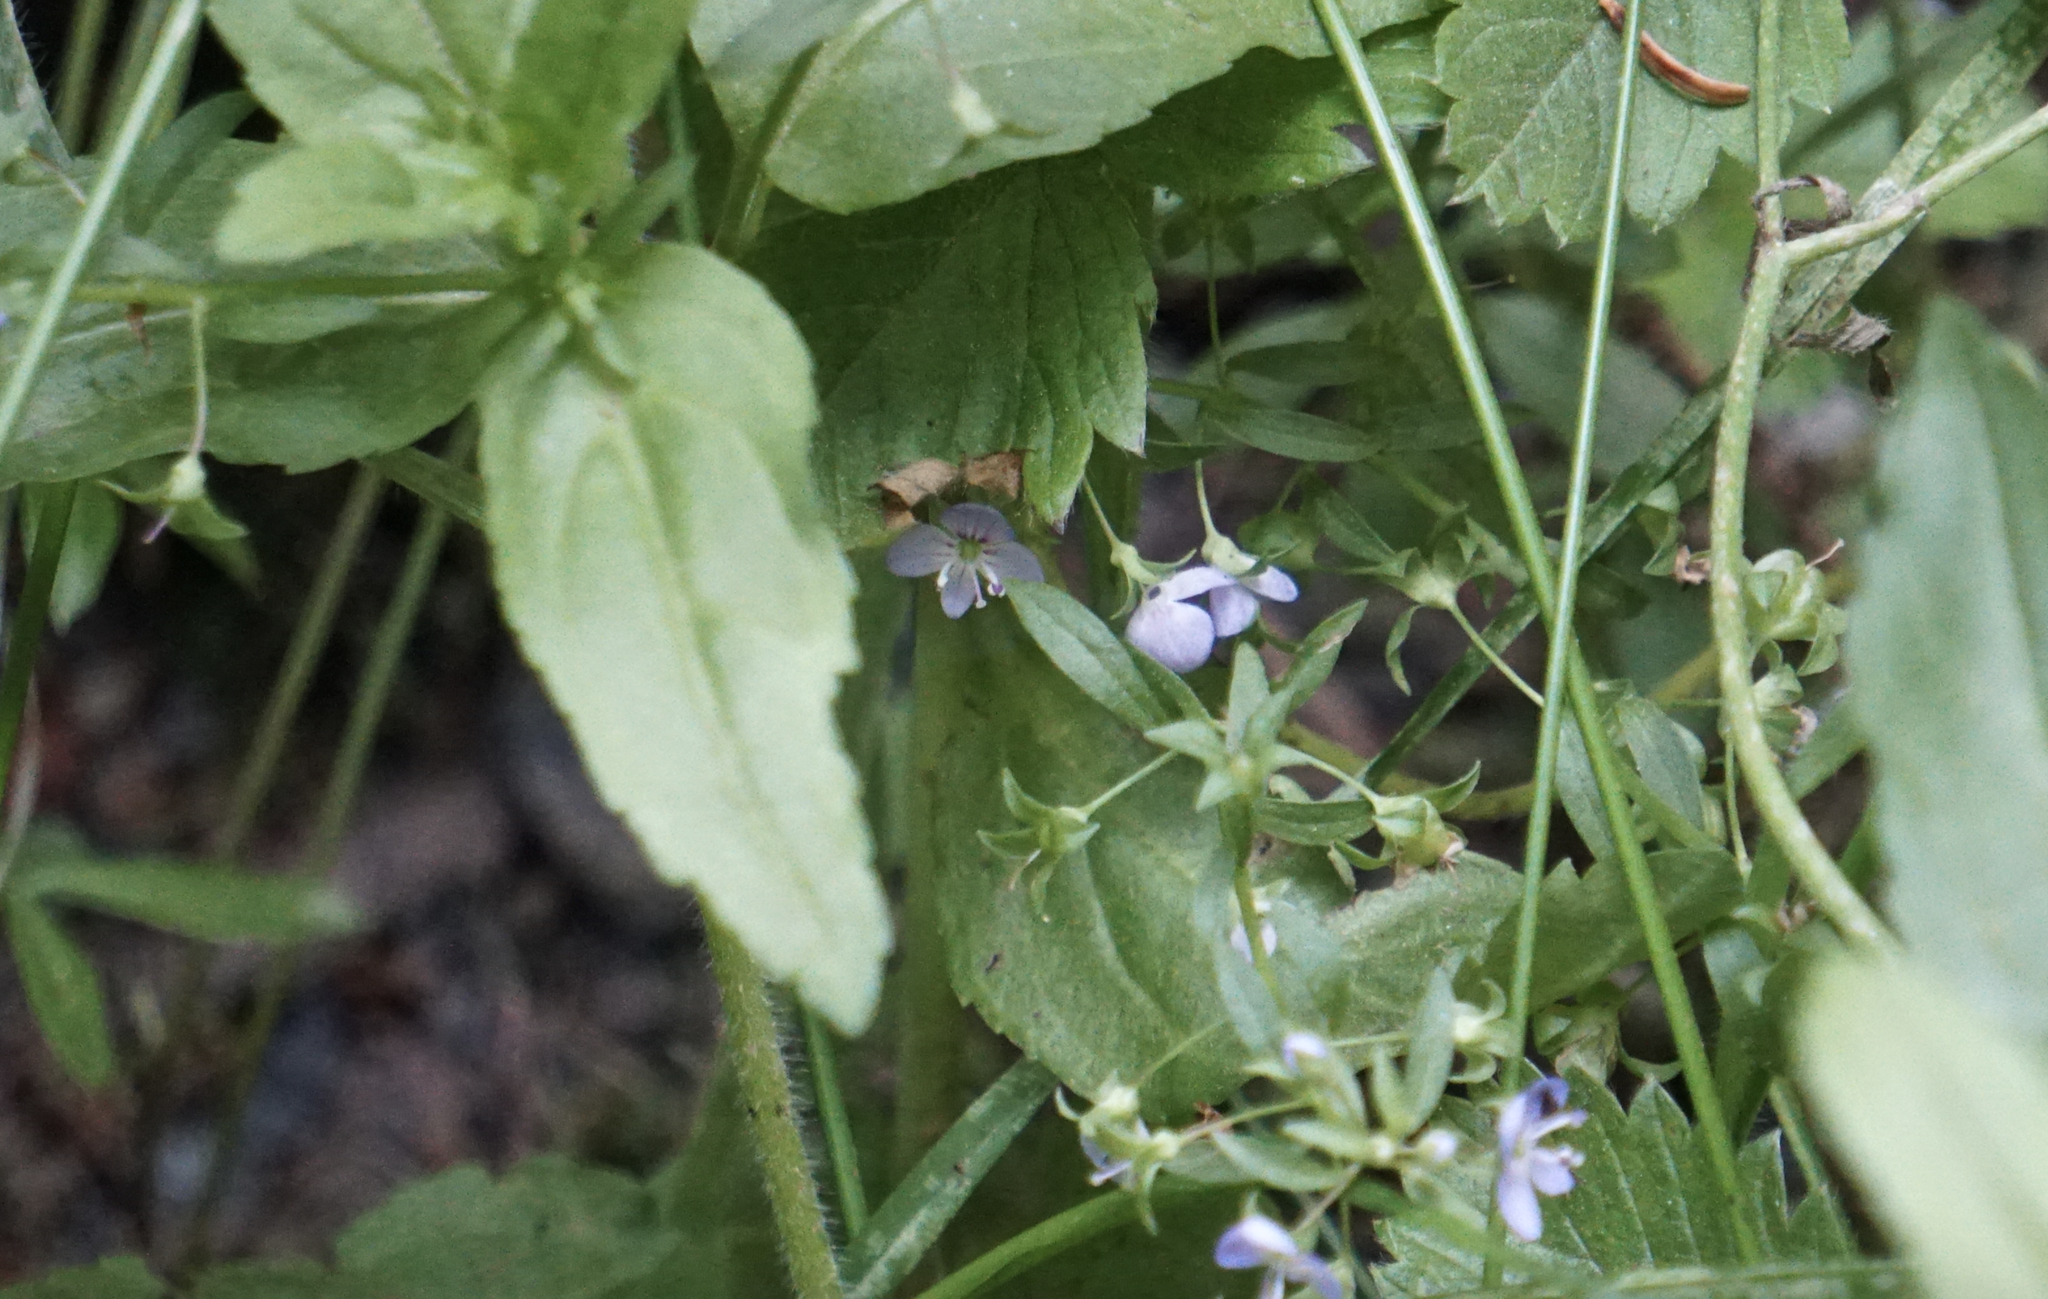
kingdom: Plantae
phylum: Tracheophyta
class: Magnoliopsida
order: Lamiales
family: Plantaginaceae
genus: Veronica
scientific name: Veronica americana
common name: American brooklime
